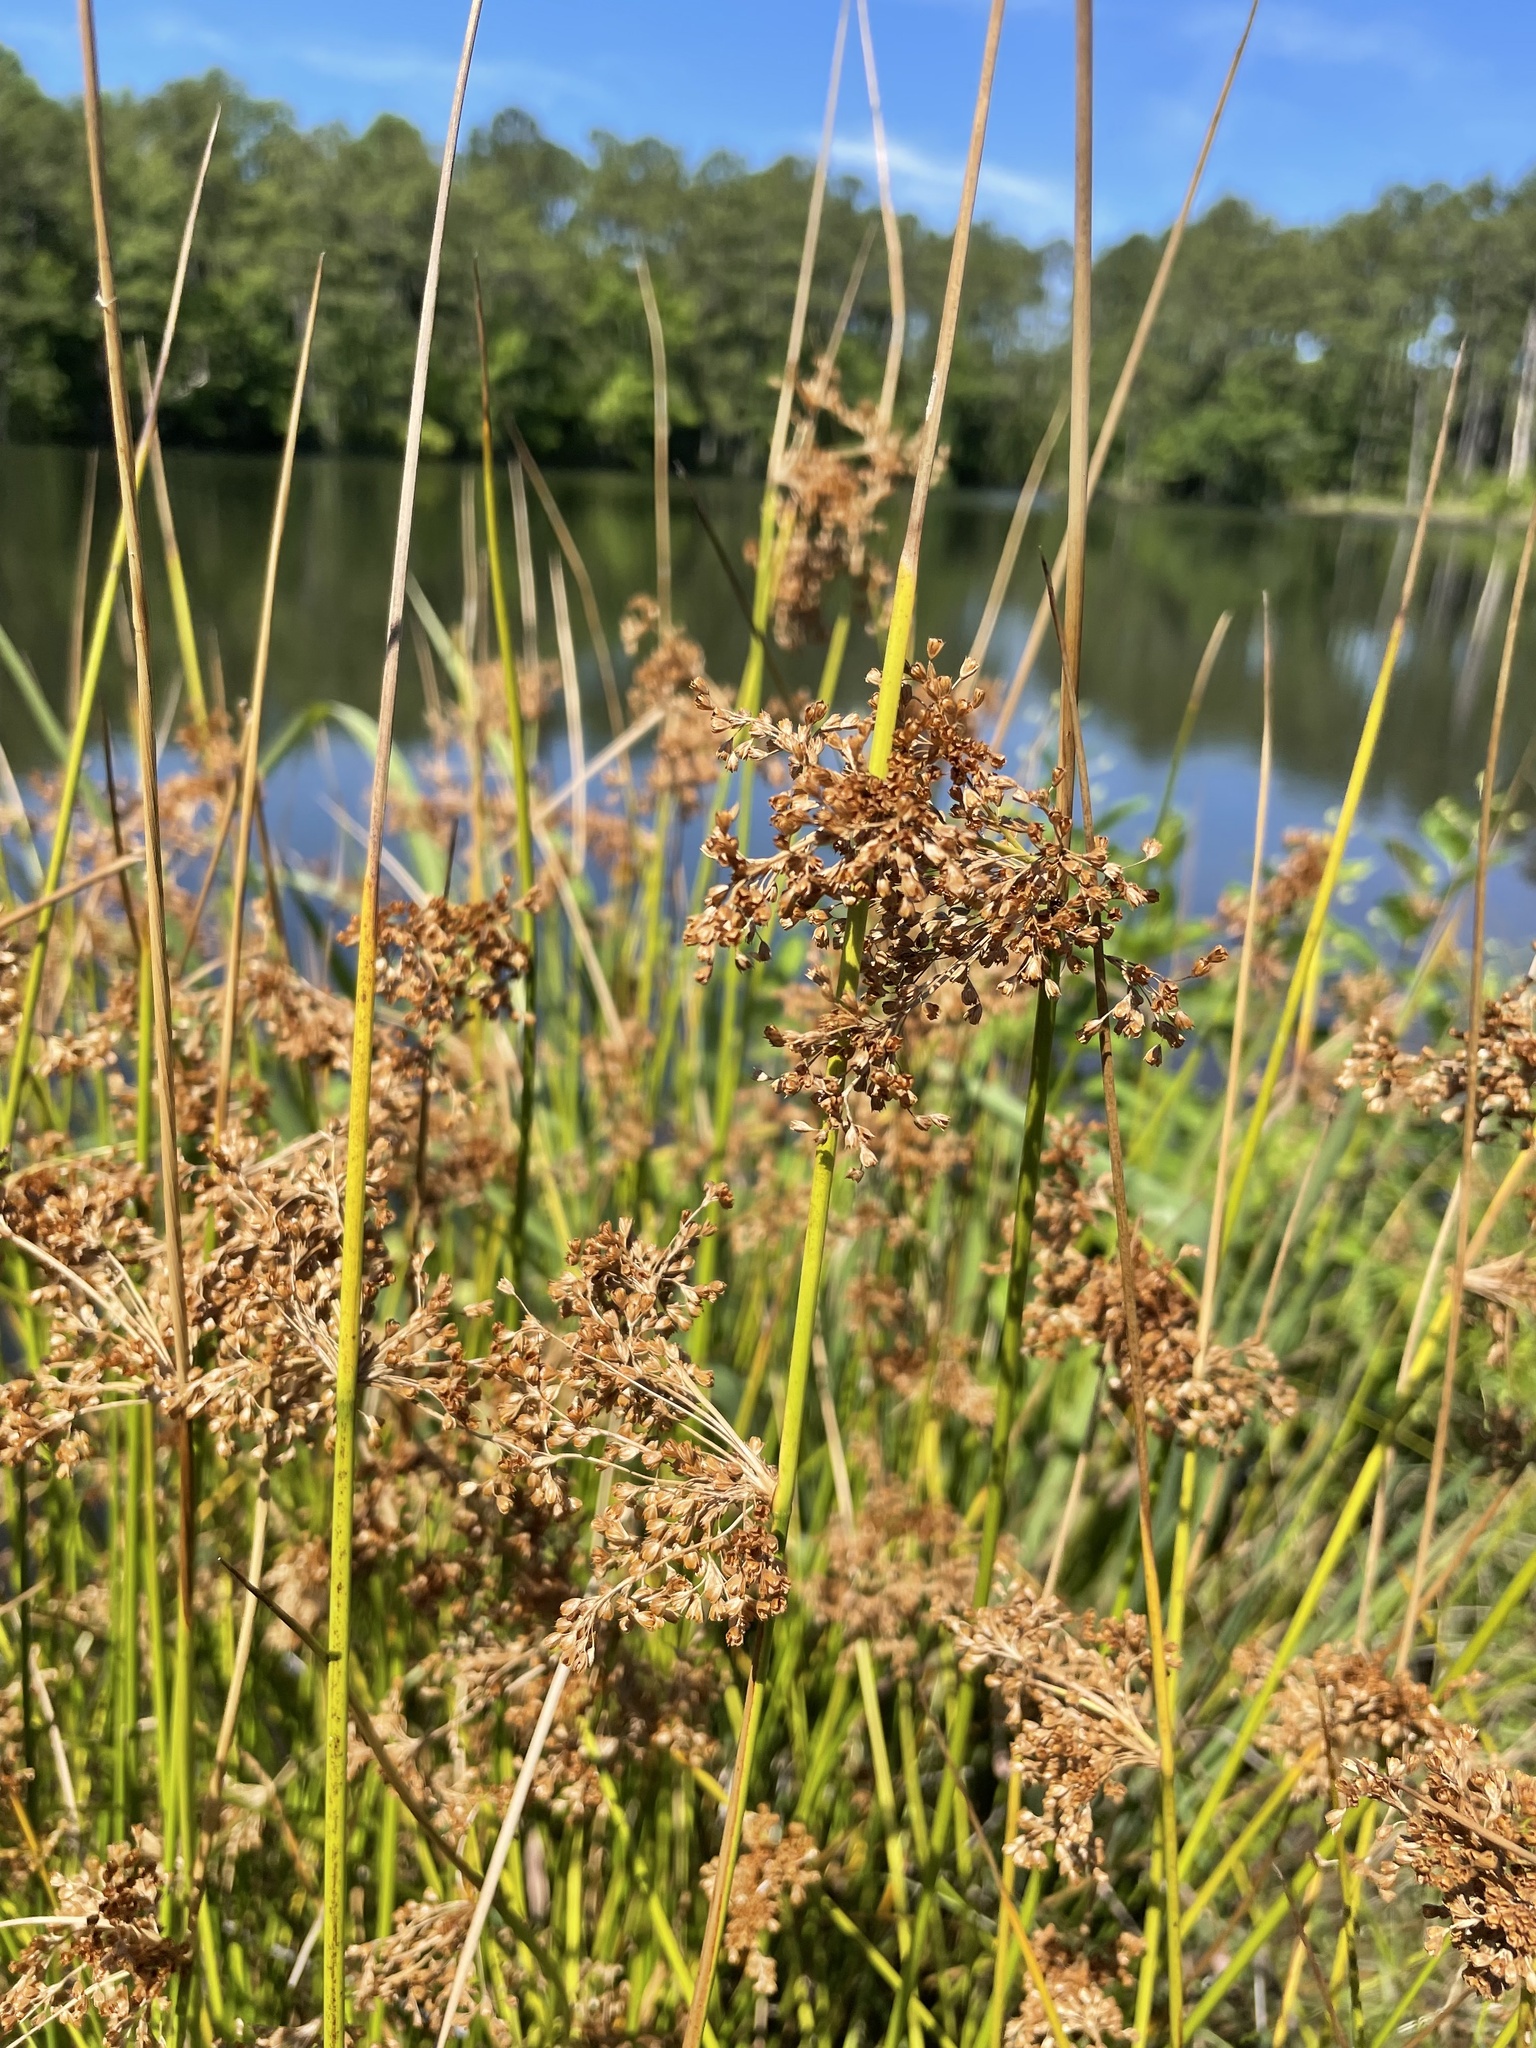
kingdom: Plantae
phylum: Tracheophyta
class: Liliopsida
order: Poales
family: Juncaceae
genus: Juncus
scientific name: Juncus effusus
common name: Soft rush
